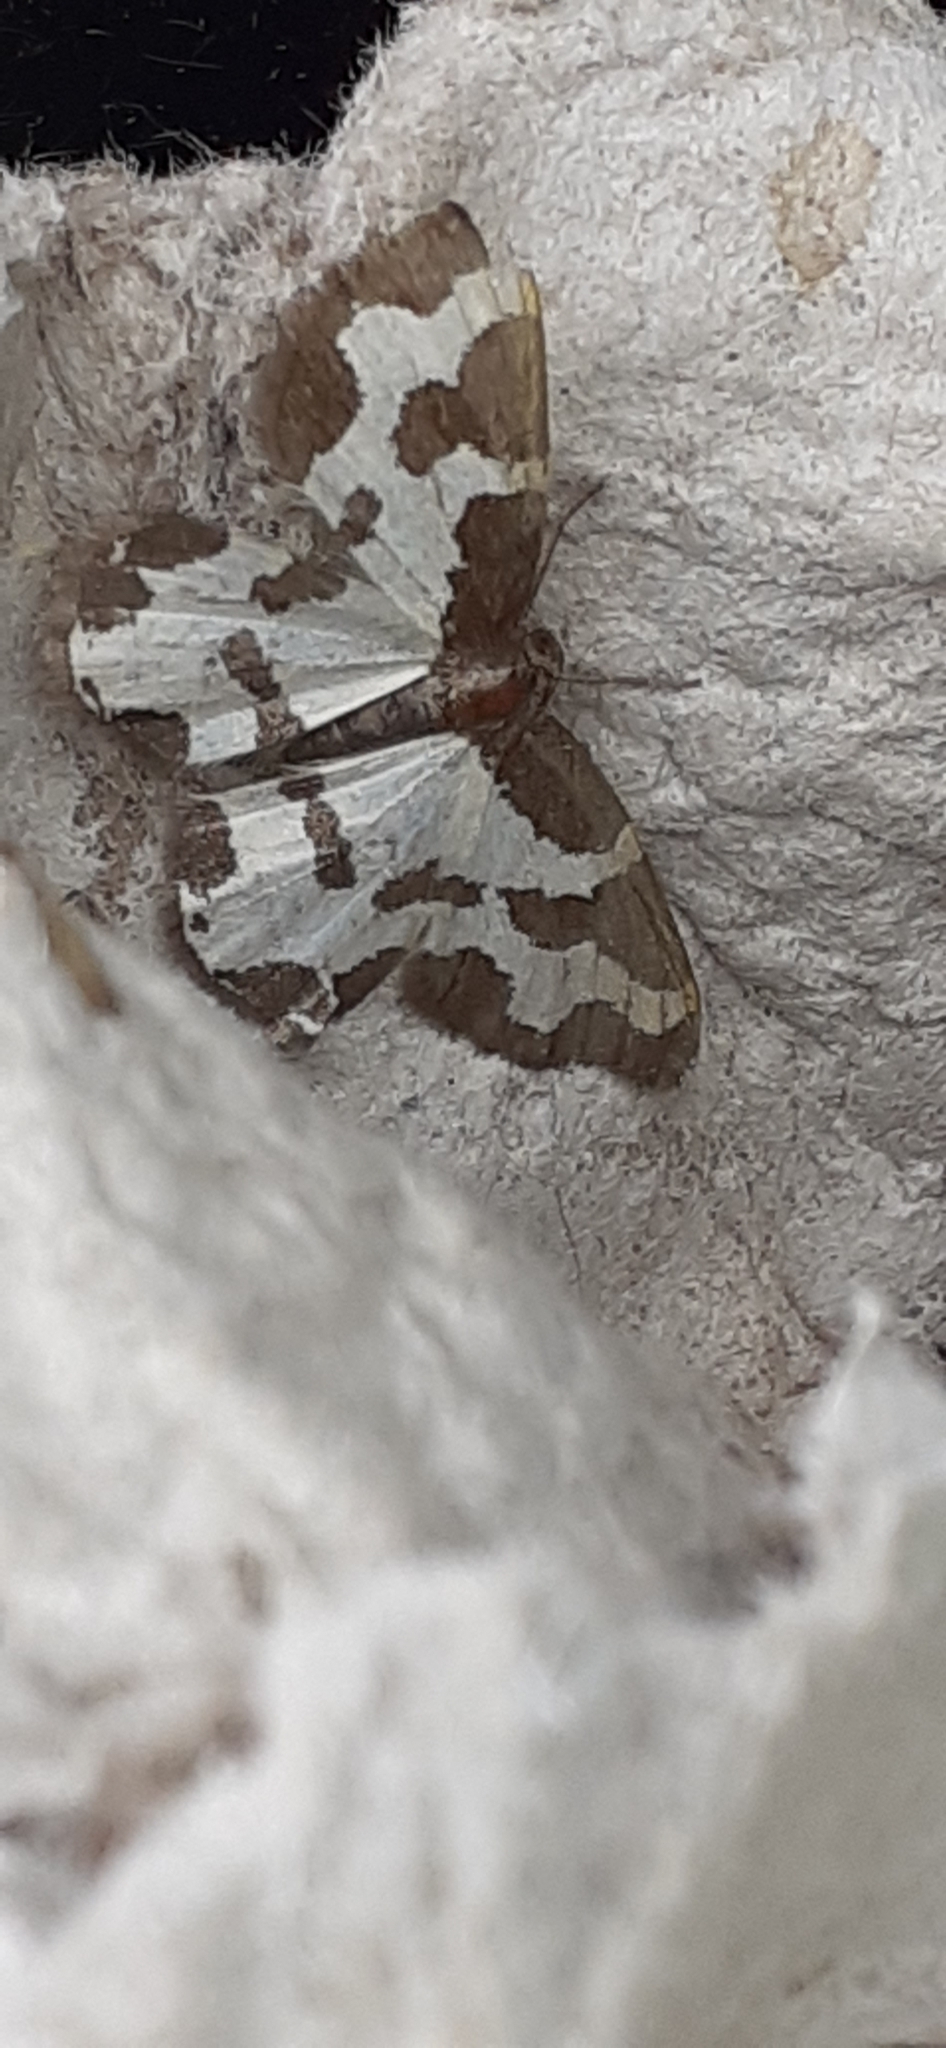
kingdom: Animalia
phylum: Arthropoda
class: Insecta
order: Lepidoptera
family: Geometridae
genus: Lomaspilis
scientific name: Lomaspilis marginata
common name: Clouded border
